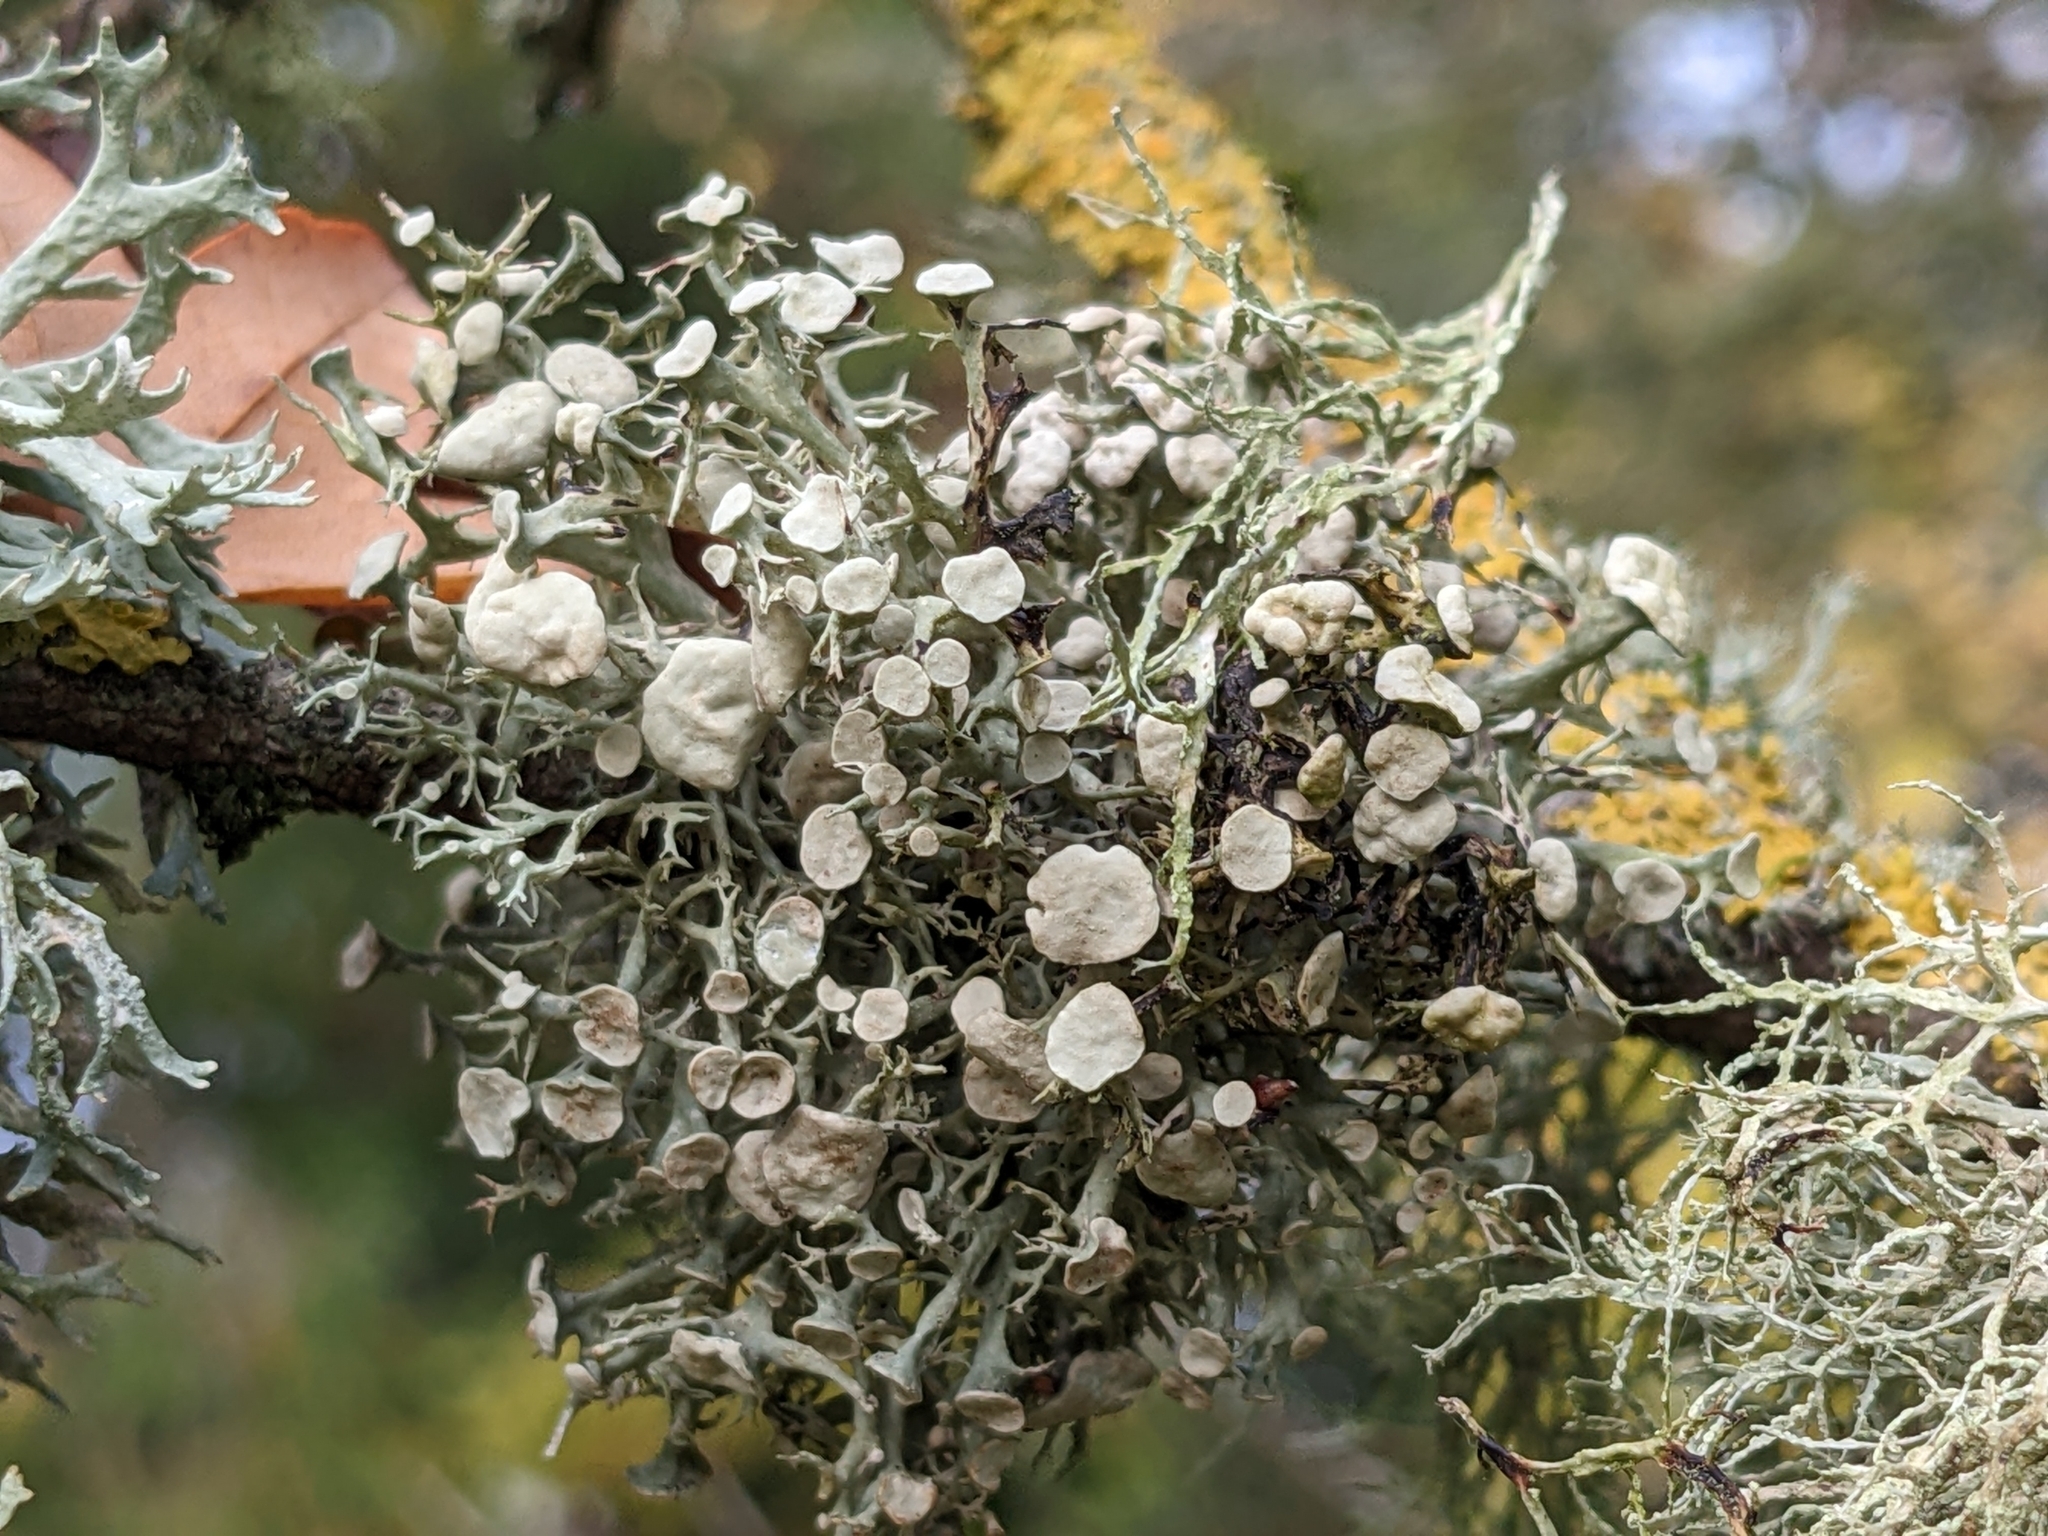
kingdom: Fungi
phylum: Ascomycota
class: Lecanoromycetes
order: Lecanorales
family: Ramalinaceae
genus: Ramalina
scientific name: Ramalina fastigiata
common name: Dotted ribbon lichen
